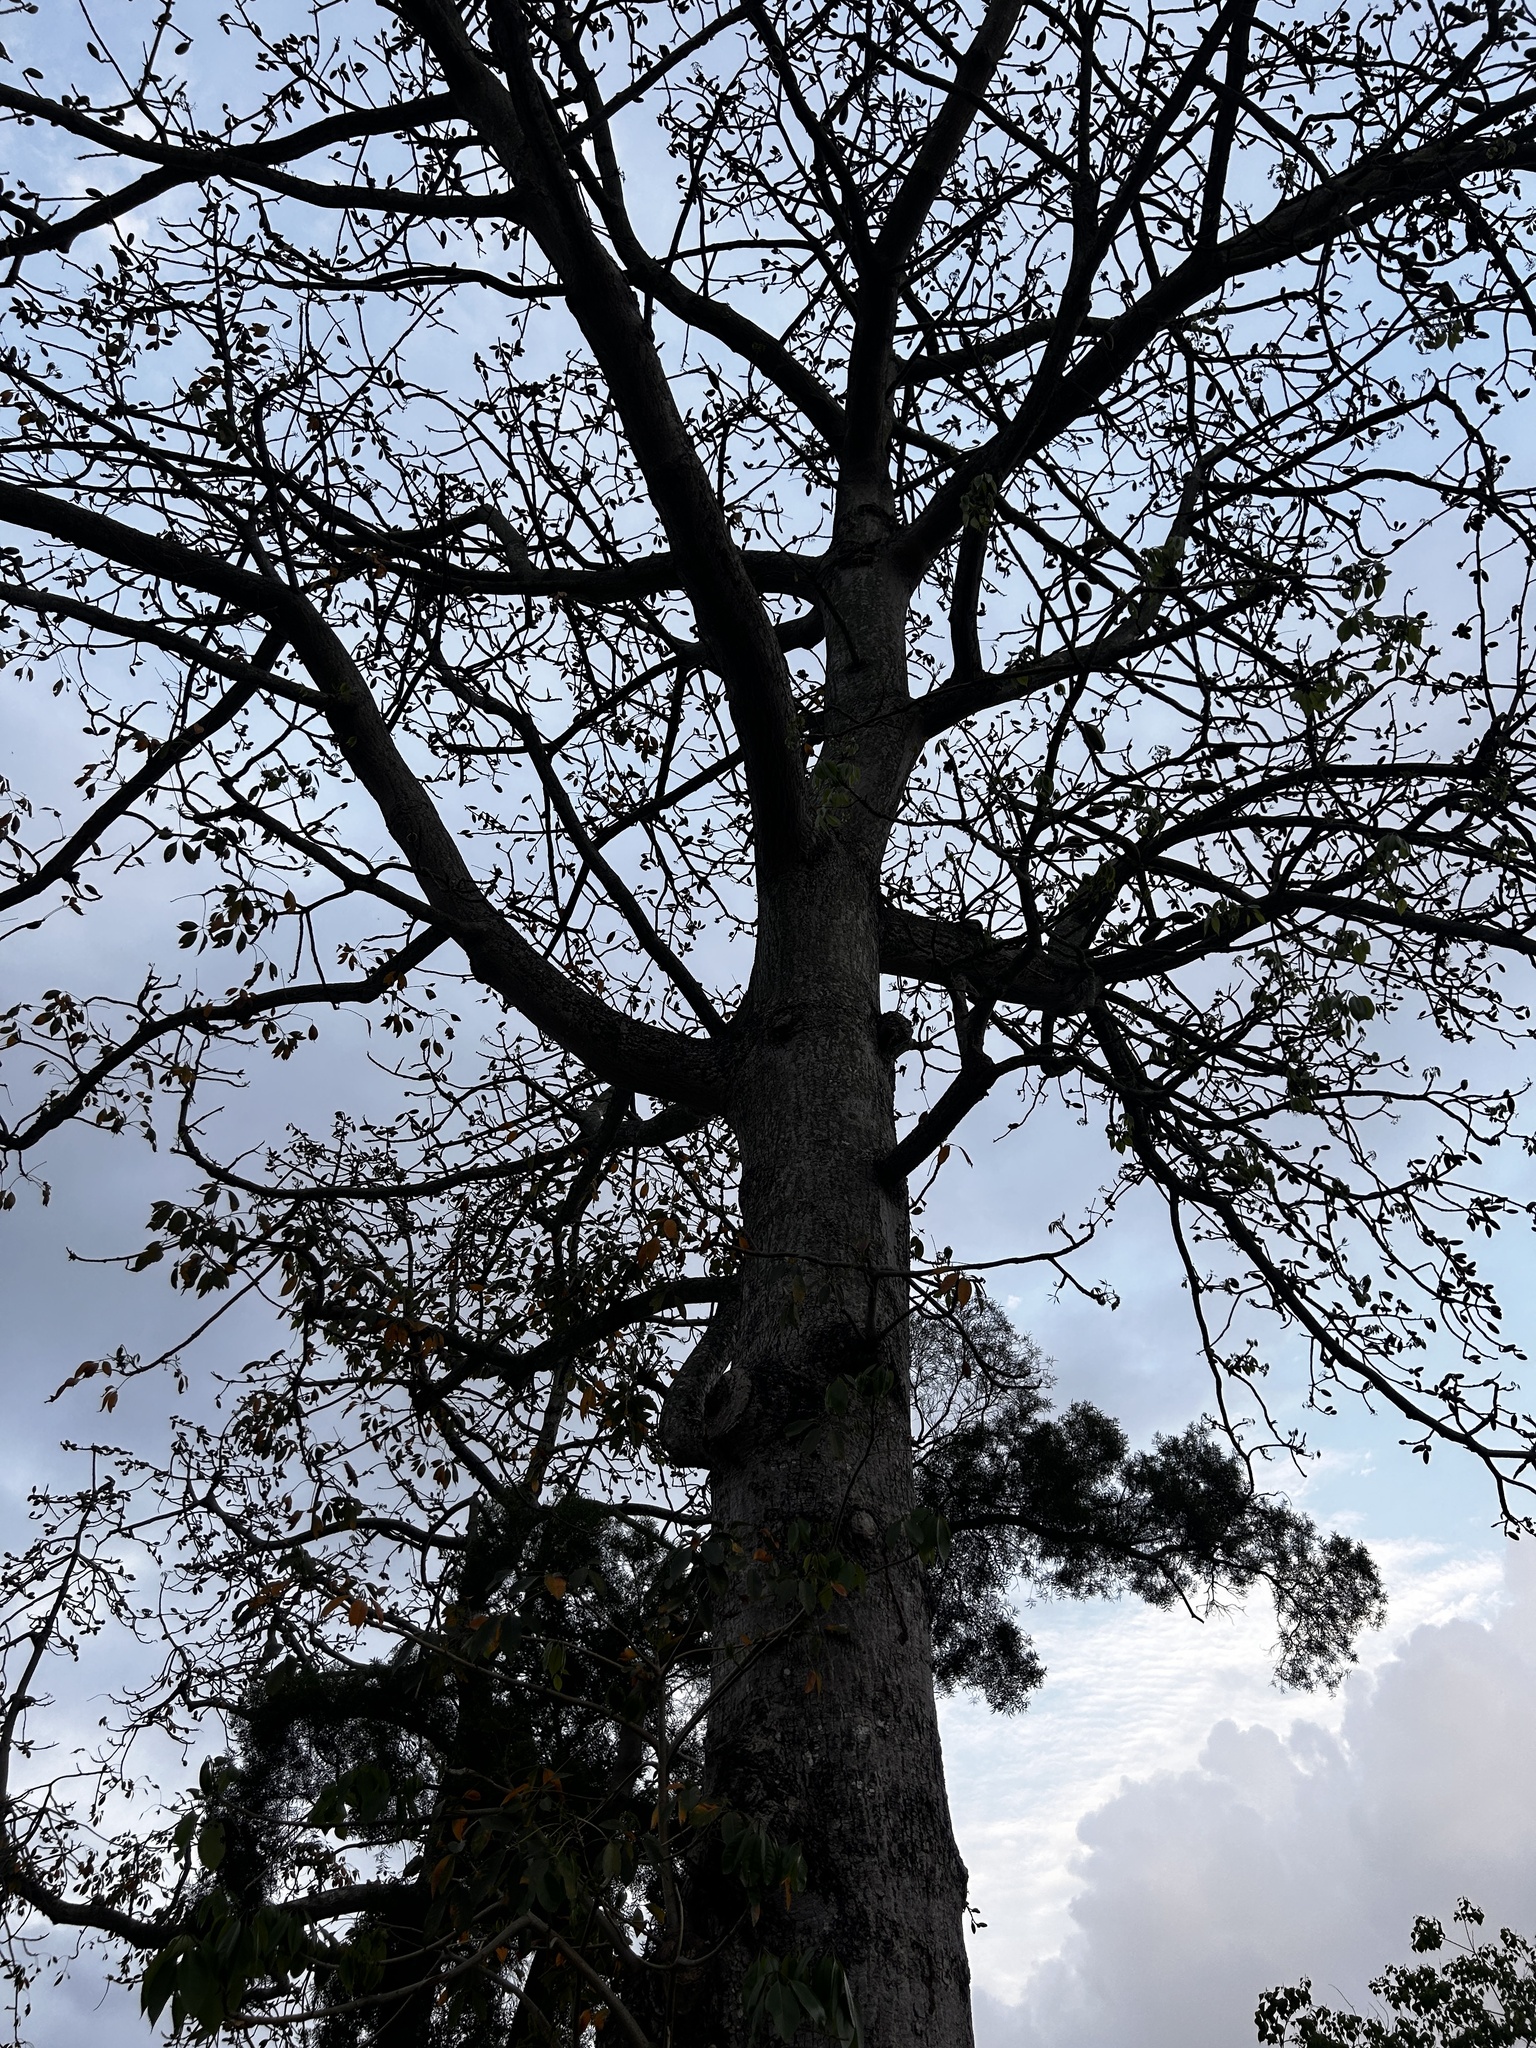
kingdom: Plantae
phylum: Tracheophyta
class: Magnoliopsida
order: Malvales
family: Malvaceae
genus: Bombax
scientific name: Bombax ceiba
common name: Northern-cottonwood
